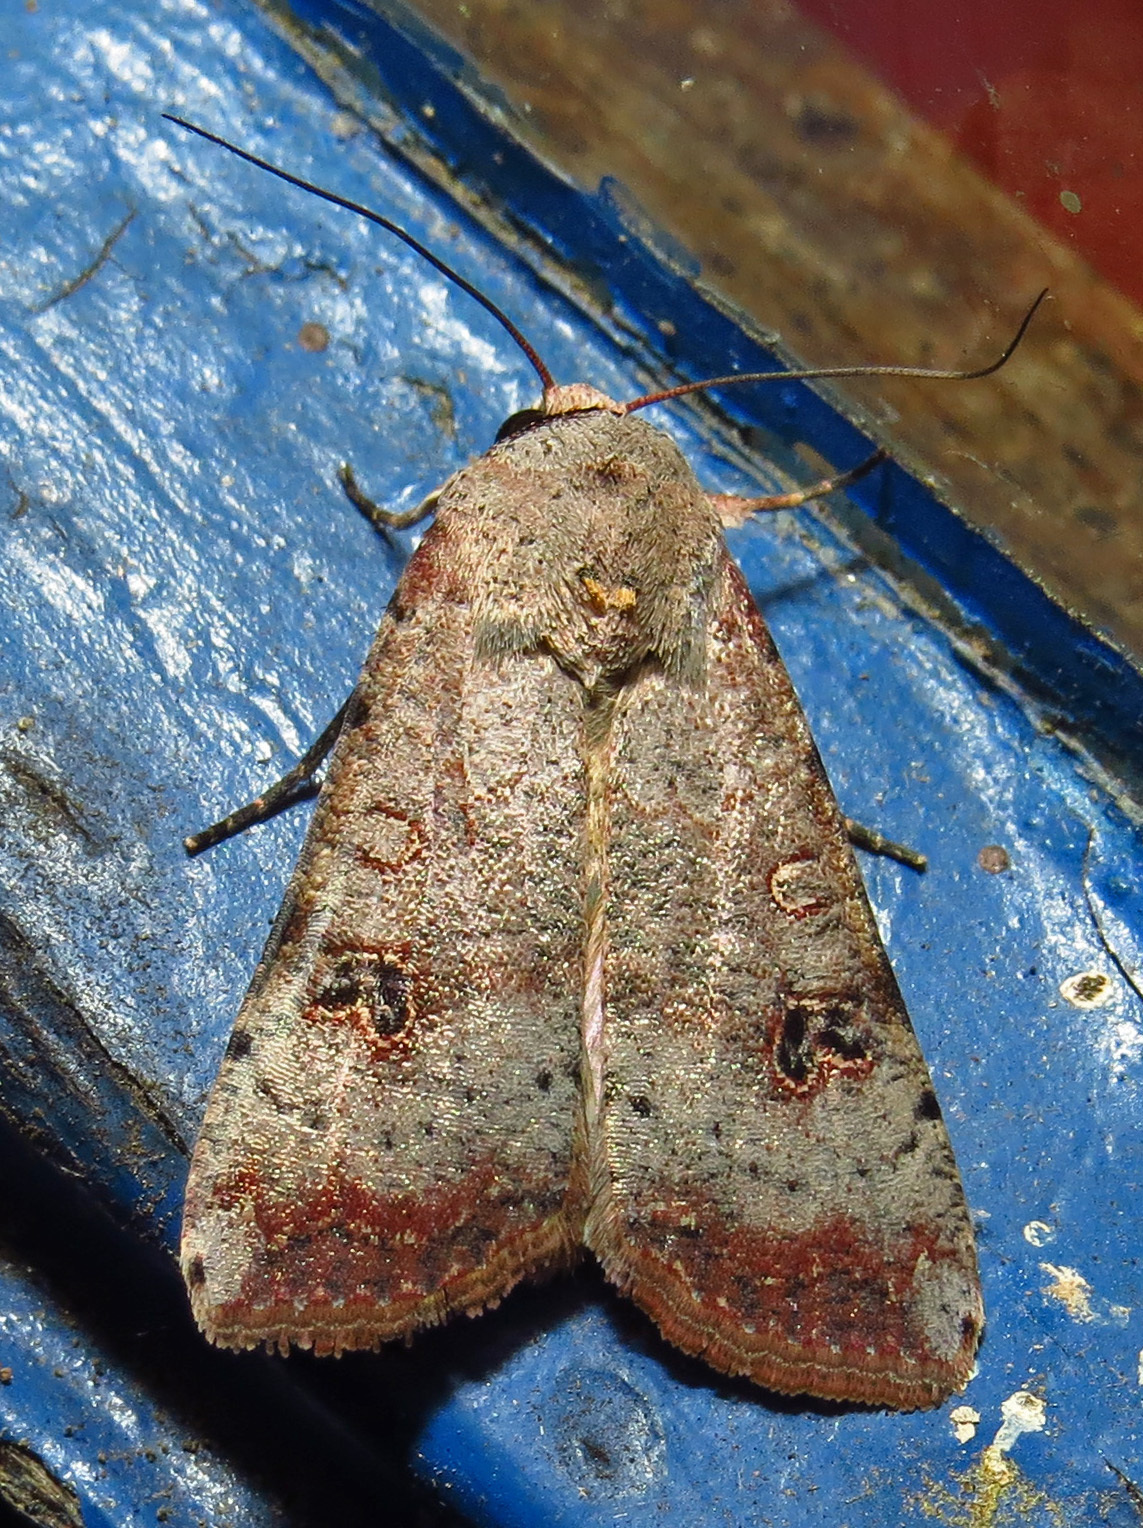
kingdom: Animalia
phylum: Arthropoda
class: Insecta
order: Lepidoptera
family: Noctuidae
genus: Anicla
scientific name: Anicla infecta
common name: Green cutworm
